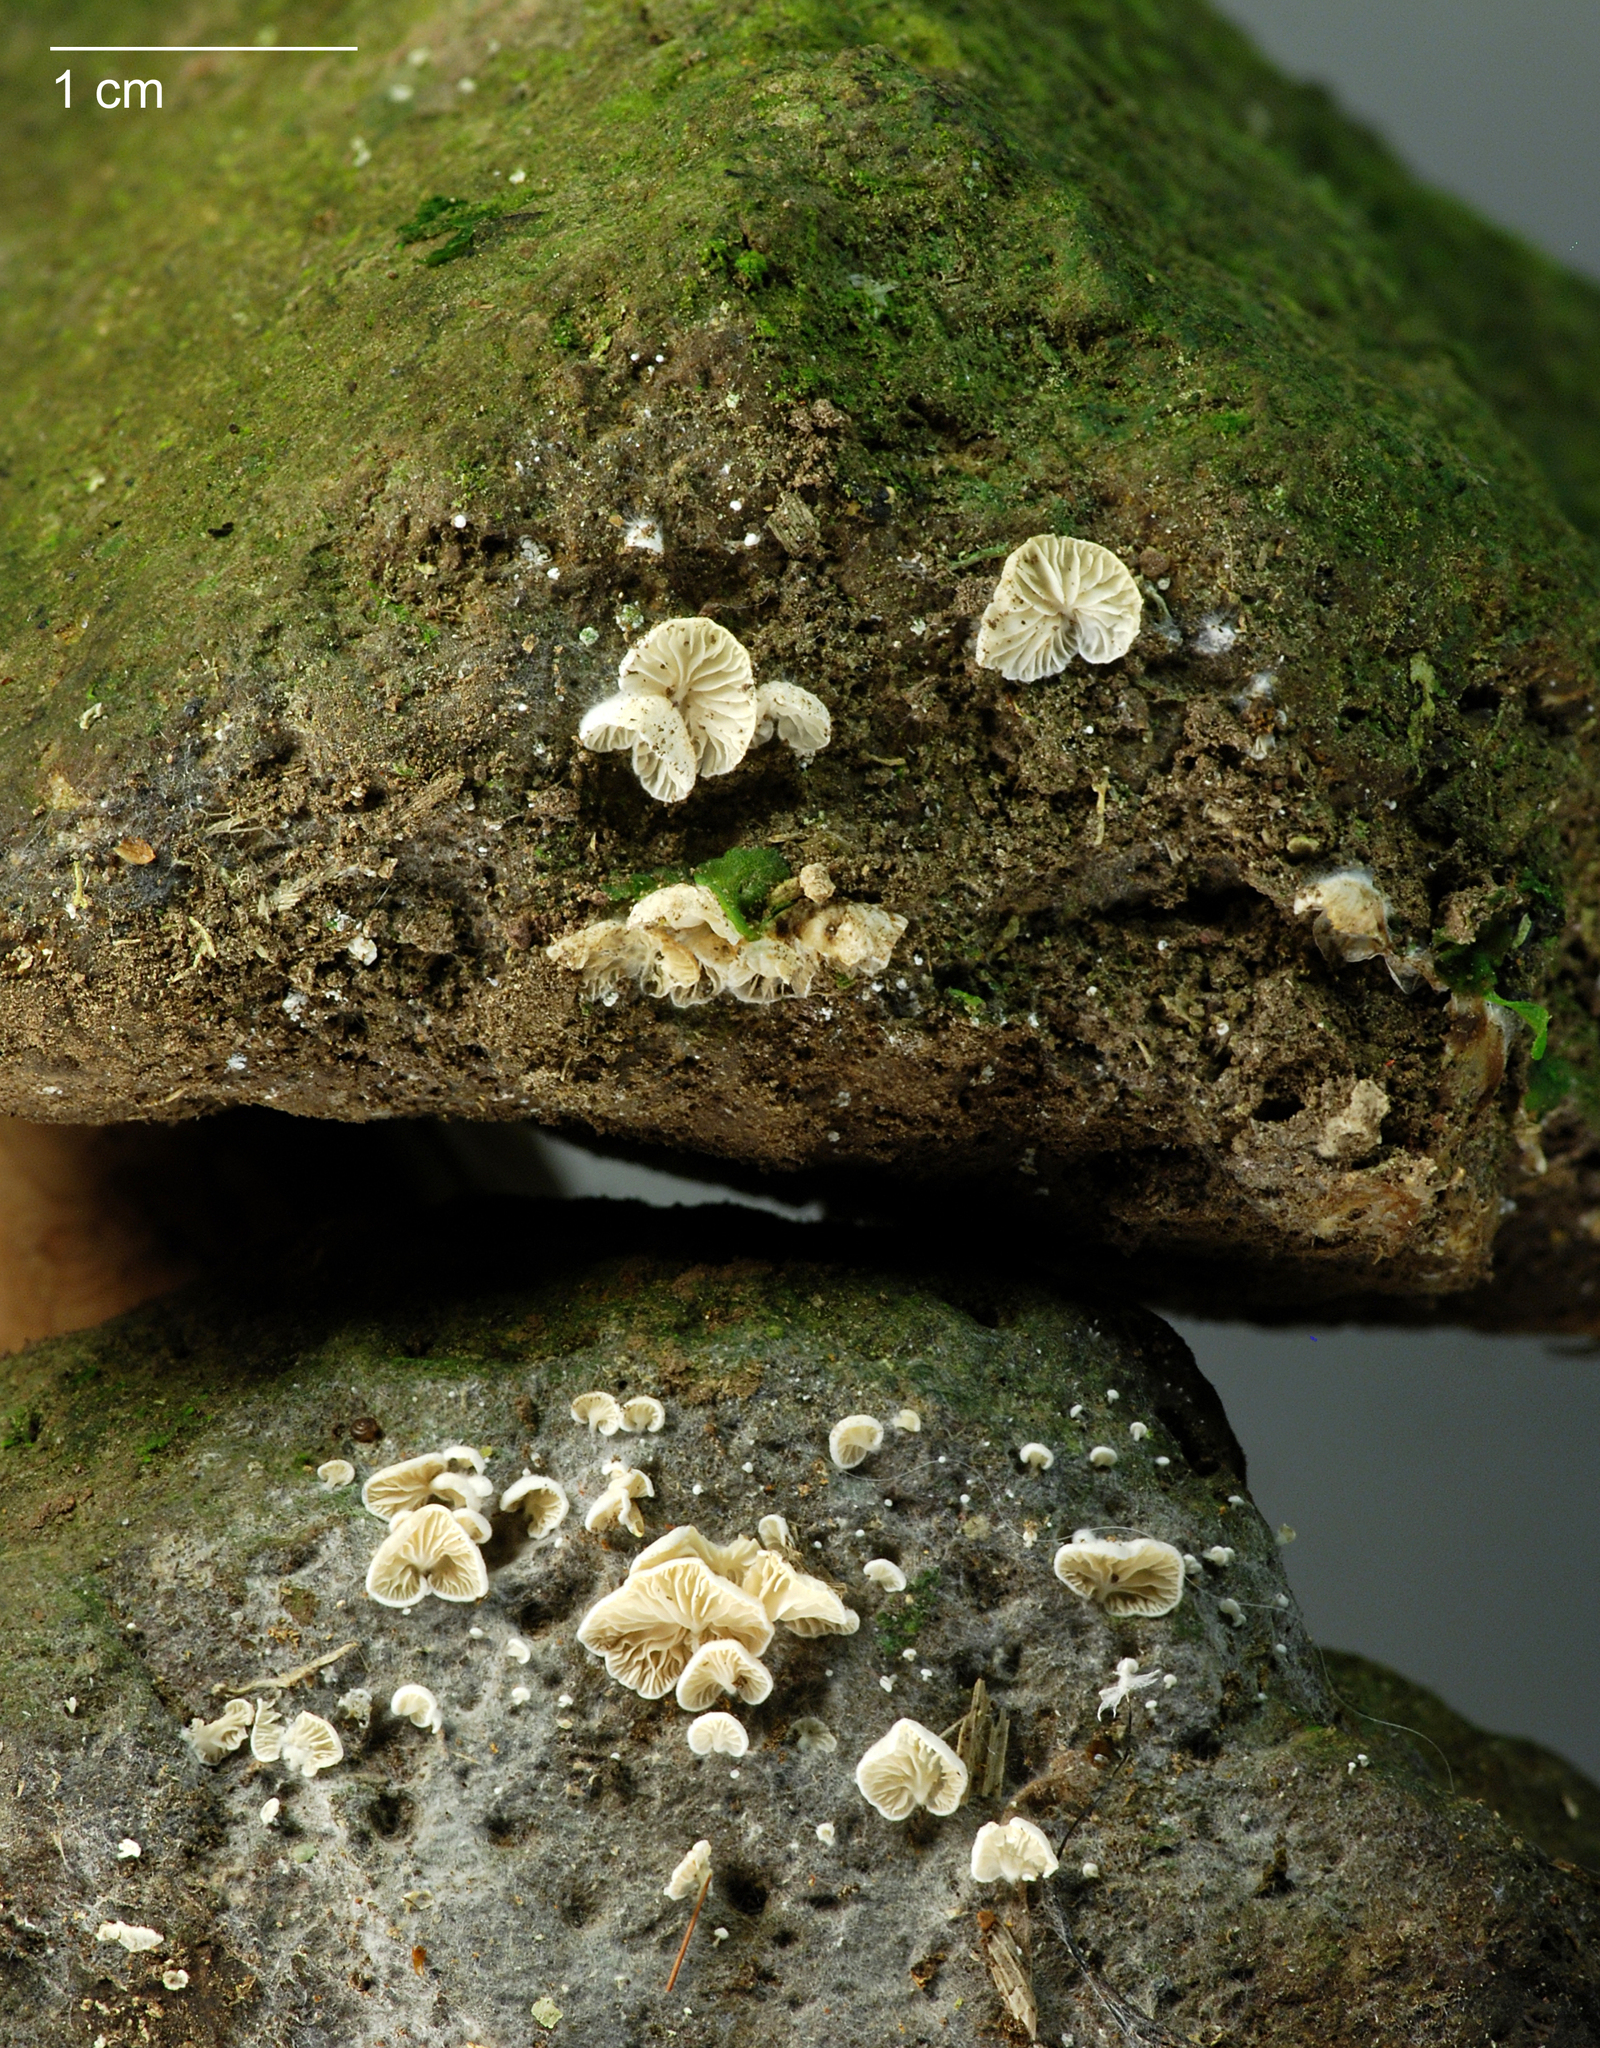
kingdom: Fungi
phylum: Basidiomycota
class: Agaricomycetes
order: Agaricales
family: Entolomataceae
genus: Clitopilus
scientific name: Clitopilus kamaka
